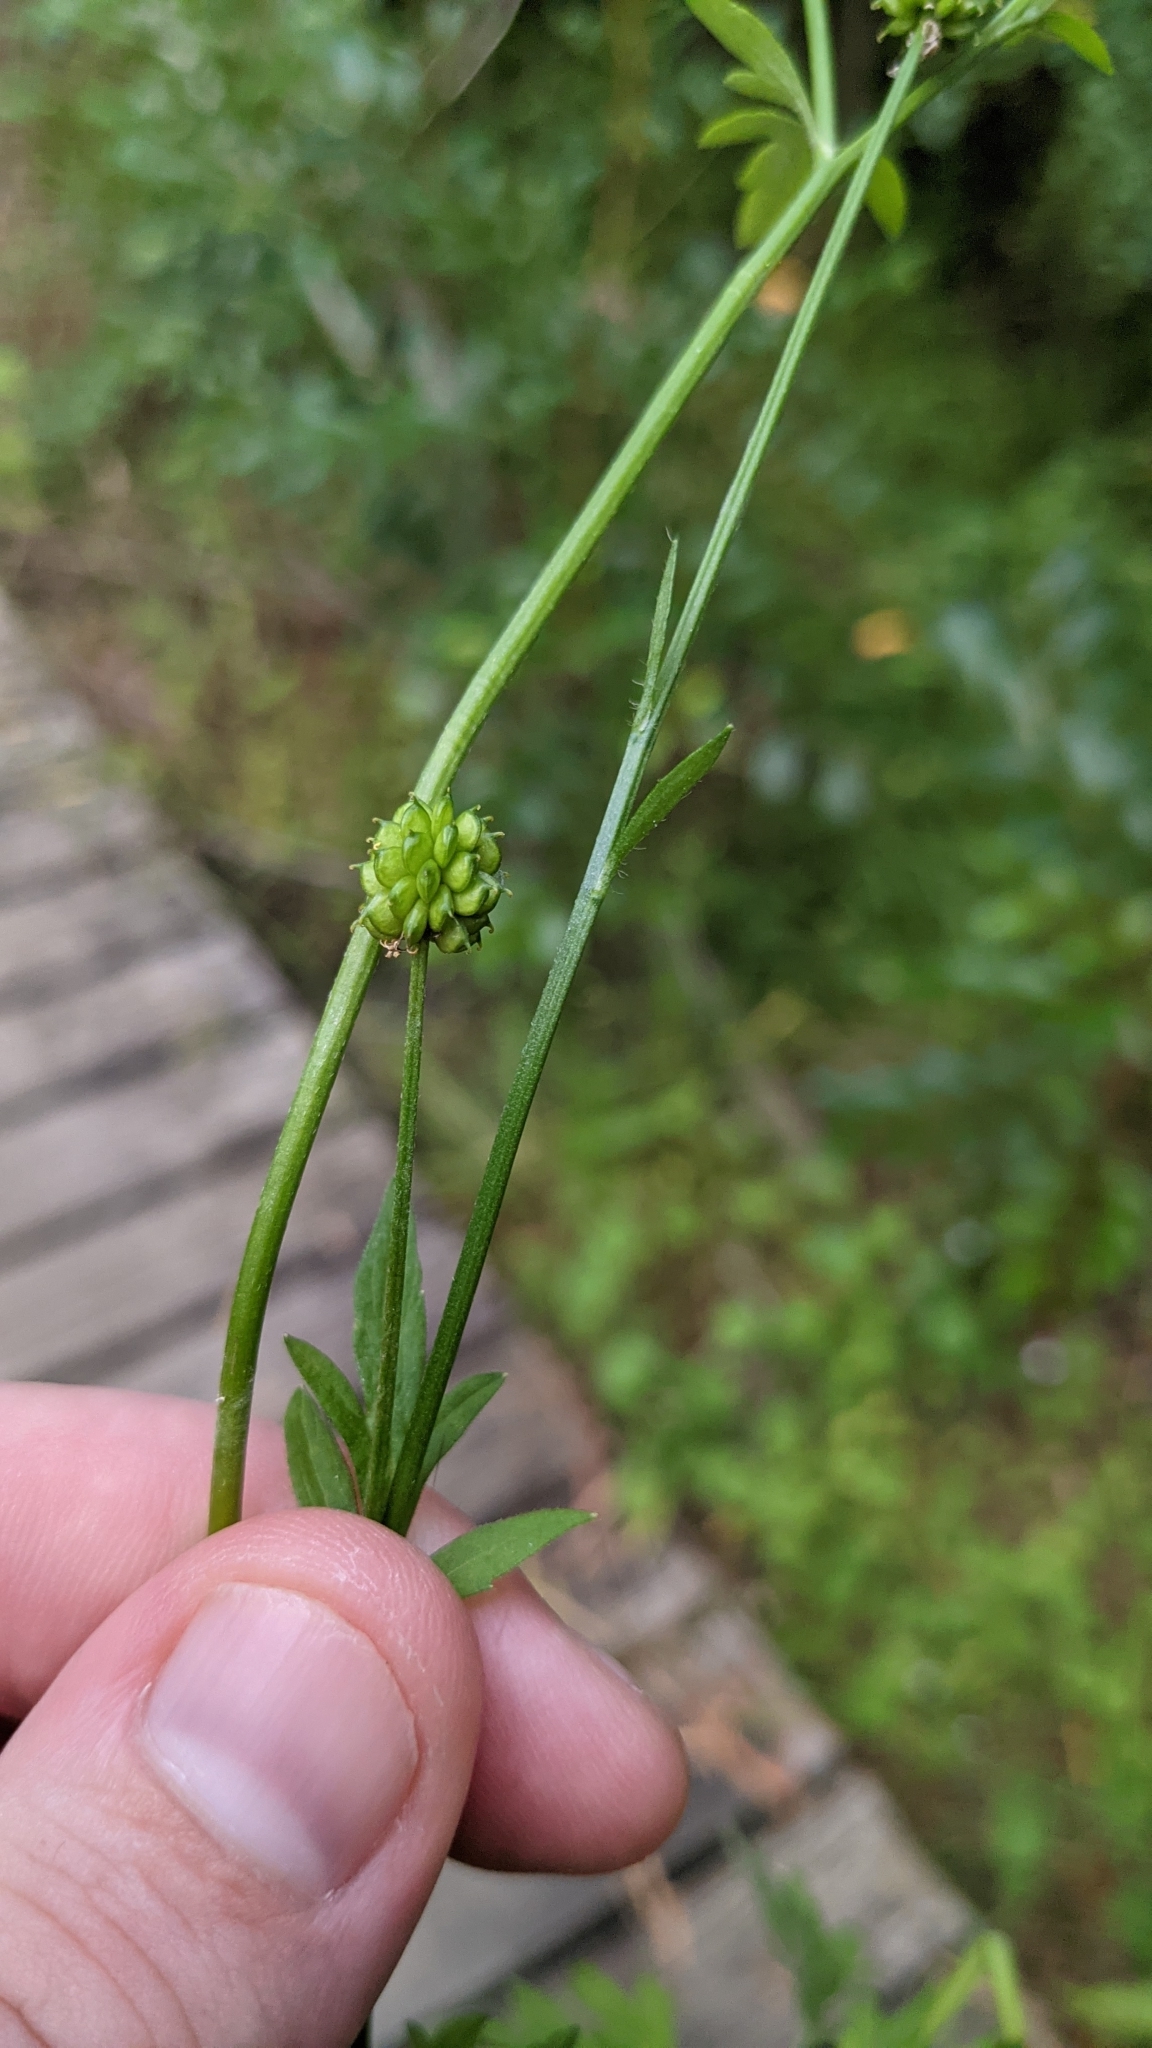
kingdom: Plantae
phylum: Tracheophyta
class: Magnoliopsida
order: Ranunculales
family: Ranunculaceae
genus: Ranunculus
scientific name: Ranunculus plebeius
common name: Common australian buttercup
